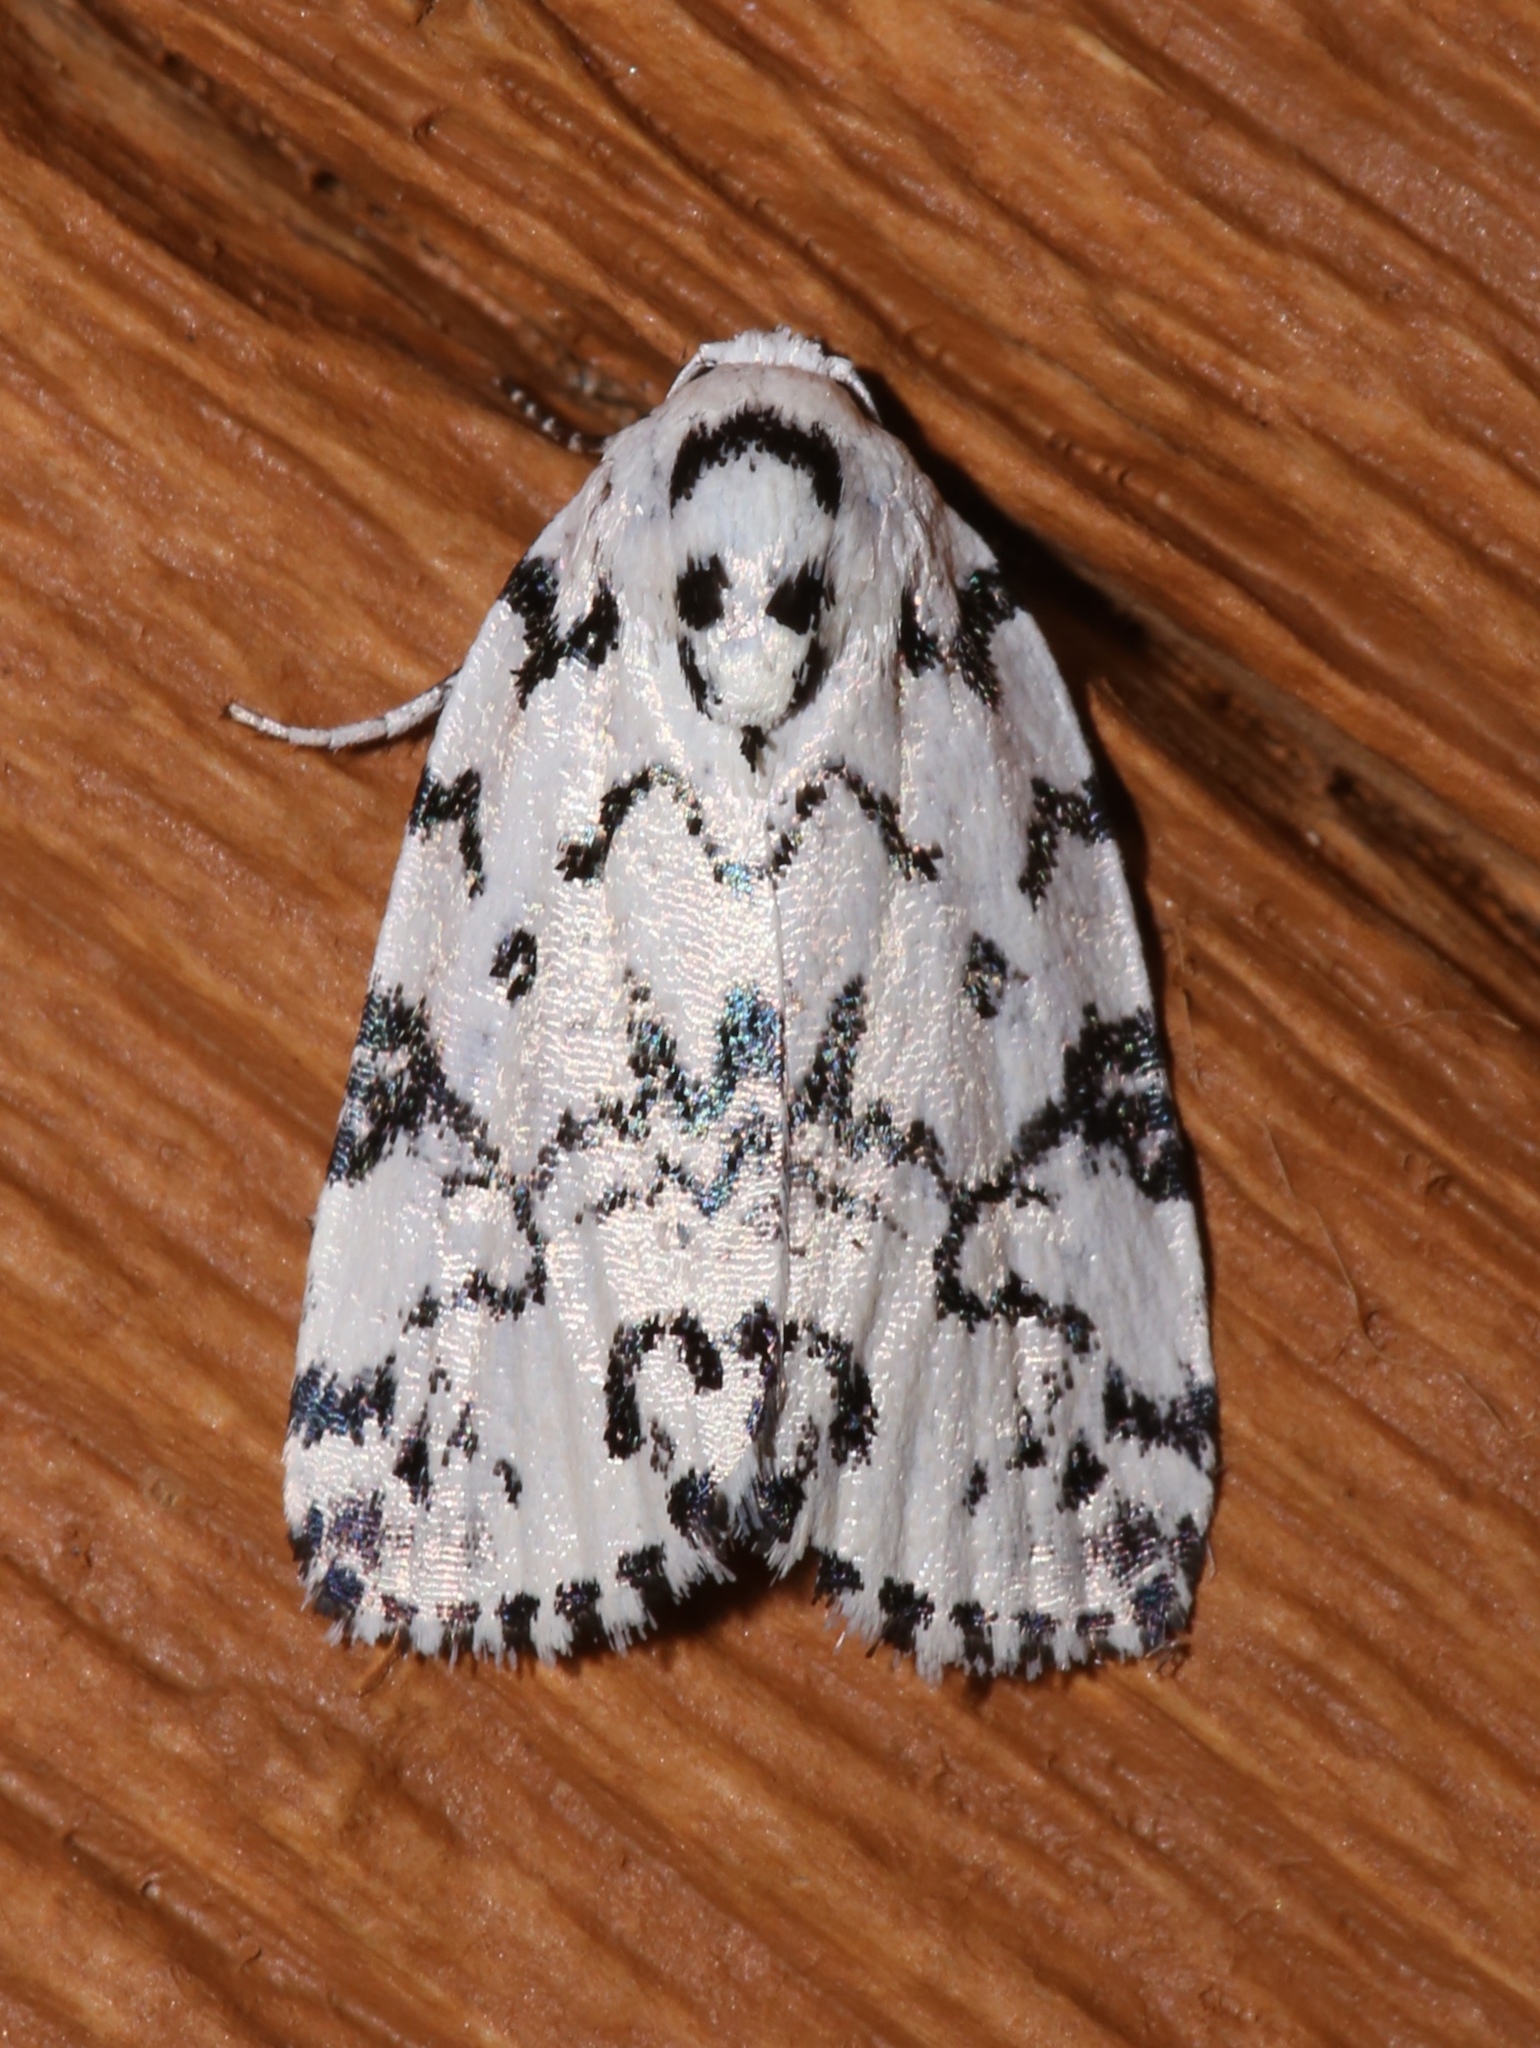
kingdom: Animalia
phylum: Arthropoda
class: Insecta
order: Lepidoptera
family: Noctuidae
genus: Polygrammate
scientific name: Polygrammate hebraeicum
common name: Hebrew moth
